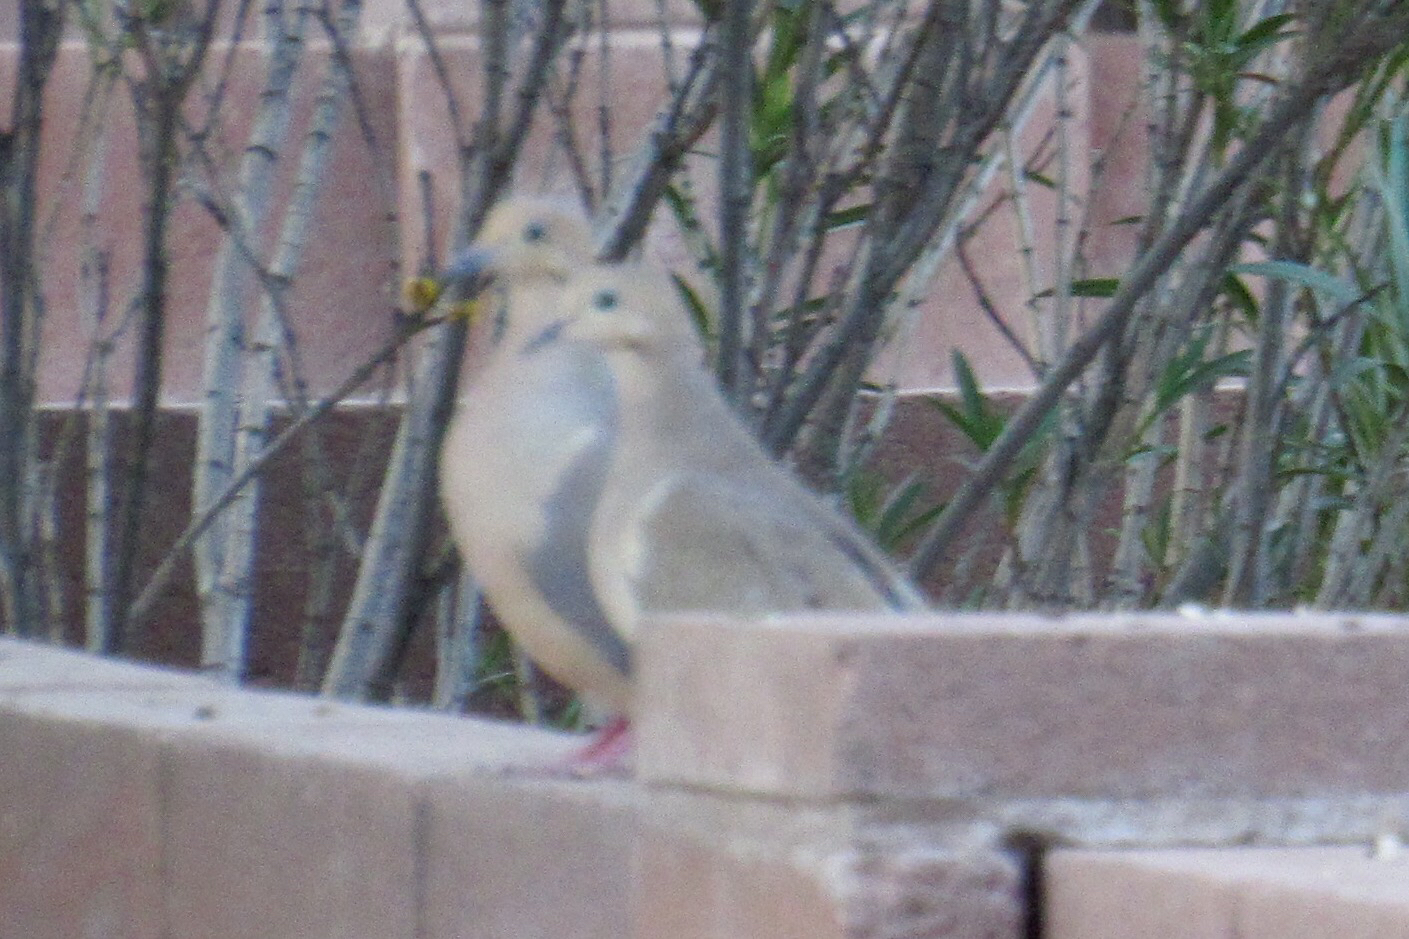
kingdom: Animalia
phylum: Chordata
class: Aves
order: Columbiformes
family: Columbidae
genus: Zenaida
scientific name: Zenaida macroura
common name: Mourning dove
